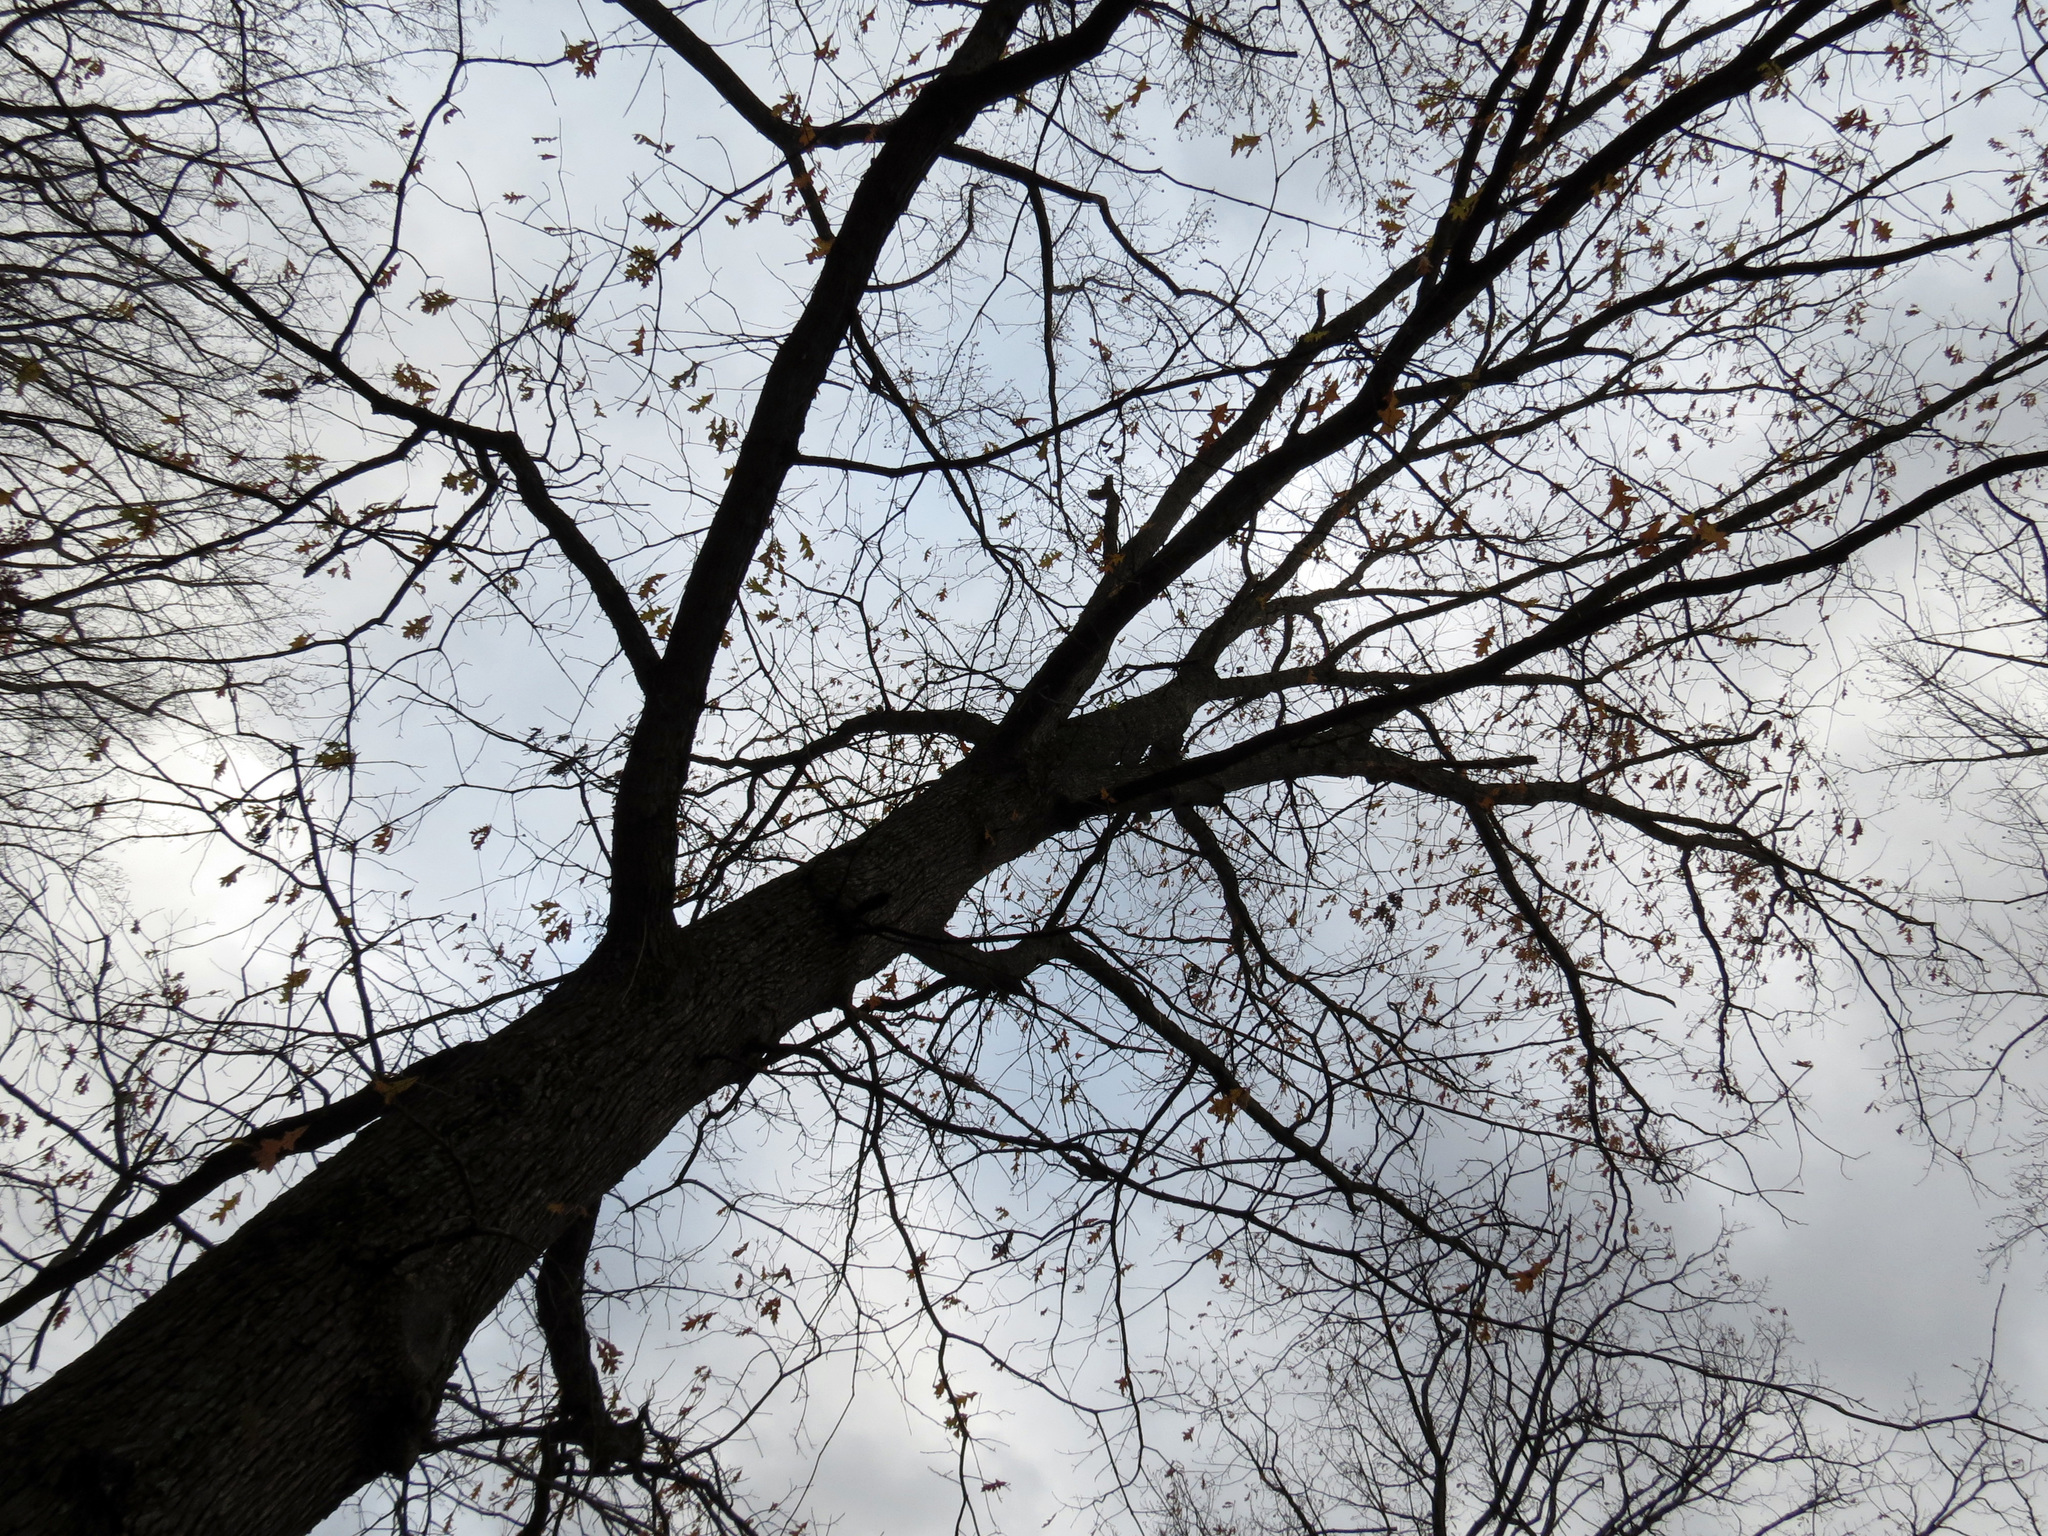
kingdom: Plantae
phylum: Tracheophyta
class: Magnoliopsida
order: Fagales
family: Fagaceae
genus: Quercus
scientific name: Quercus lyrata
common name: Overcup oak
